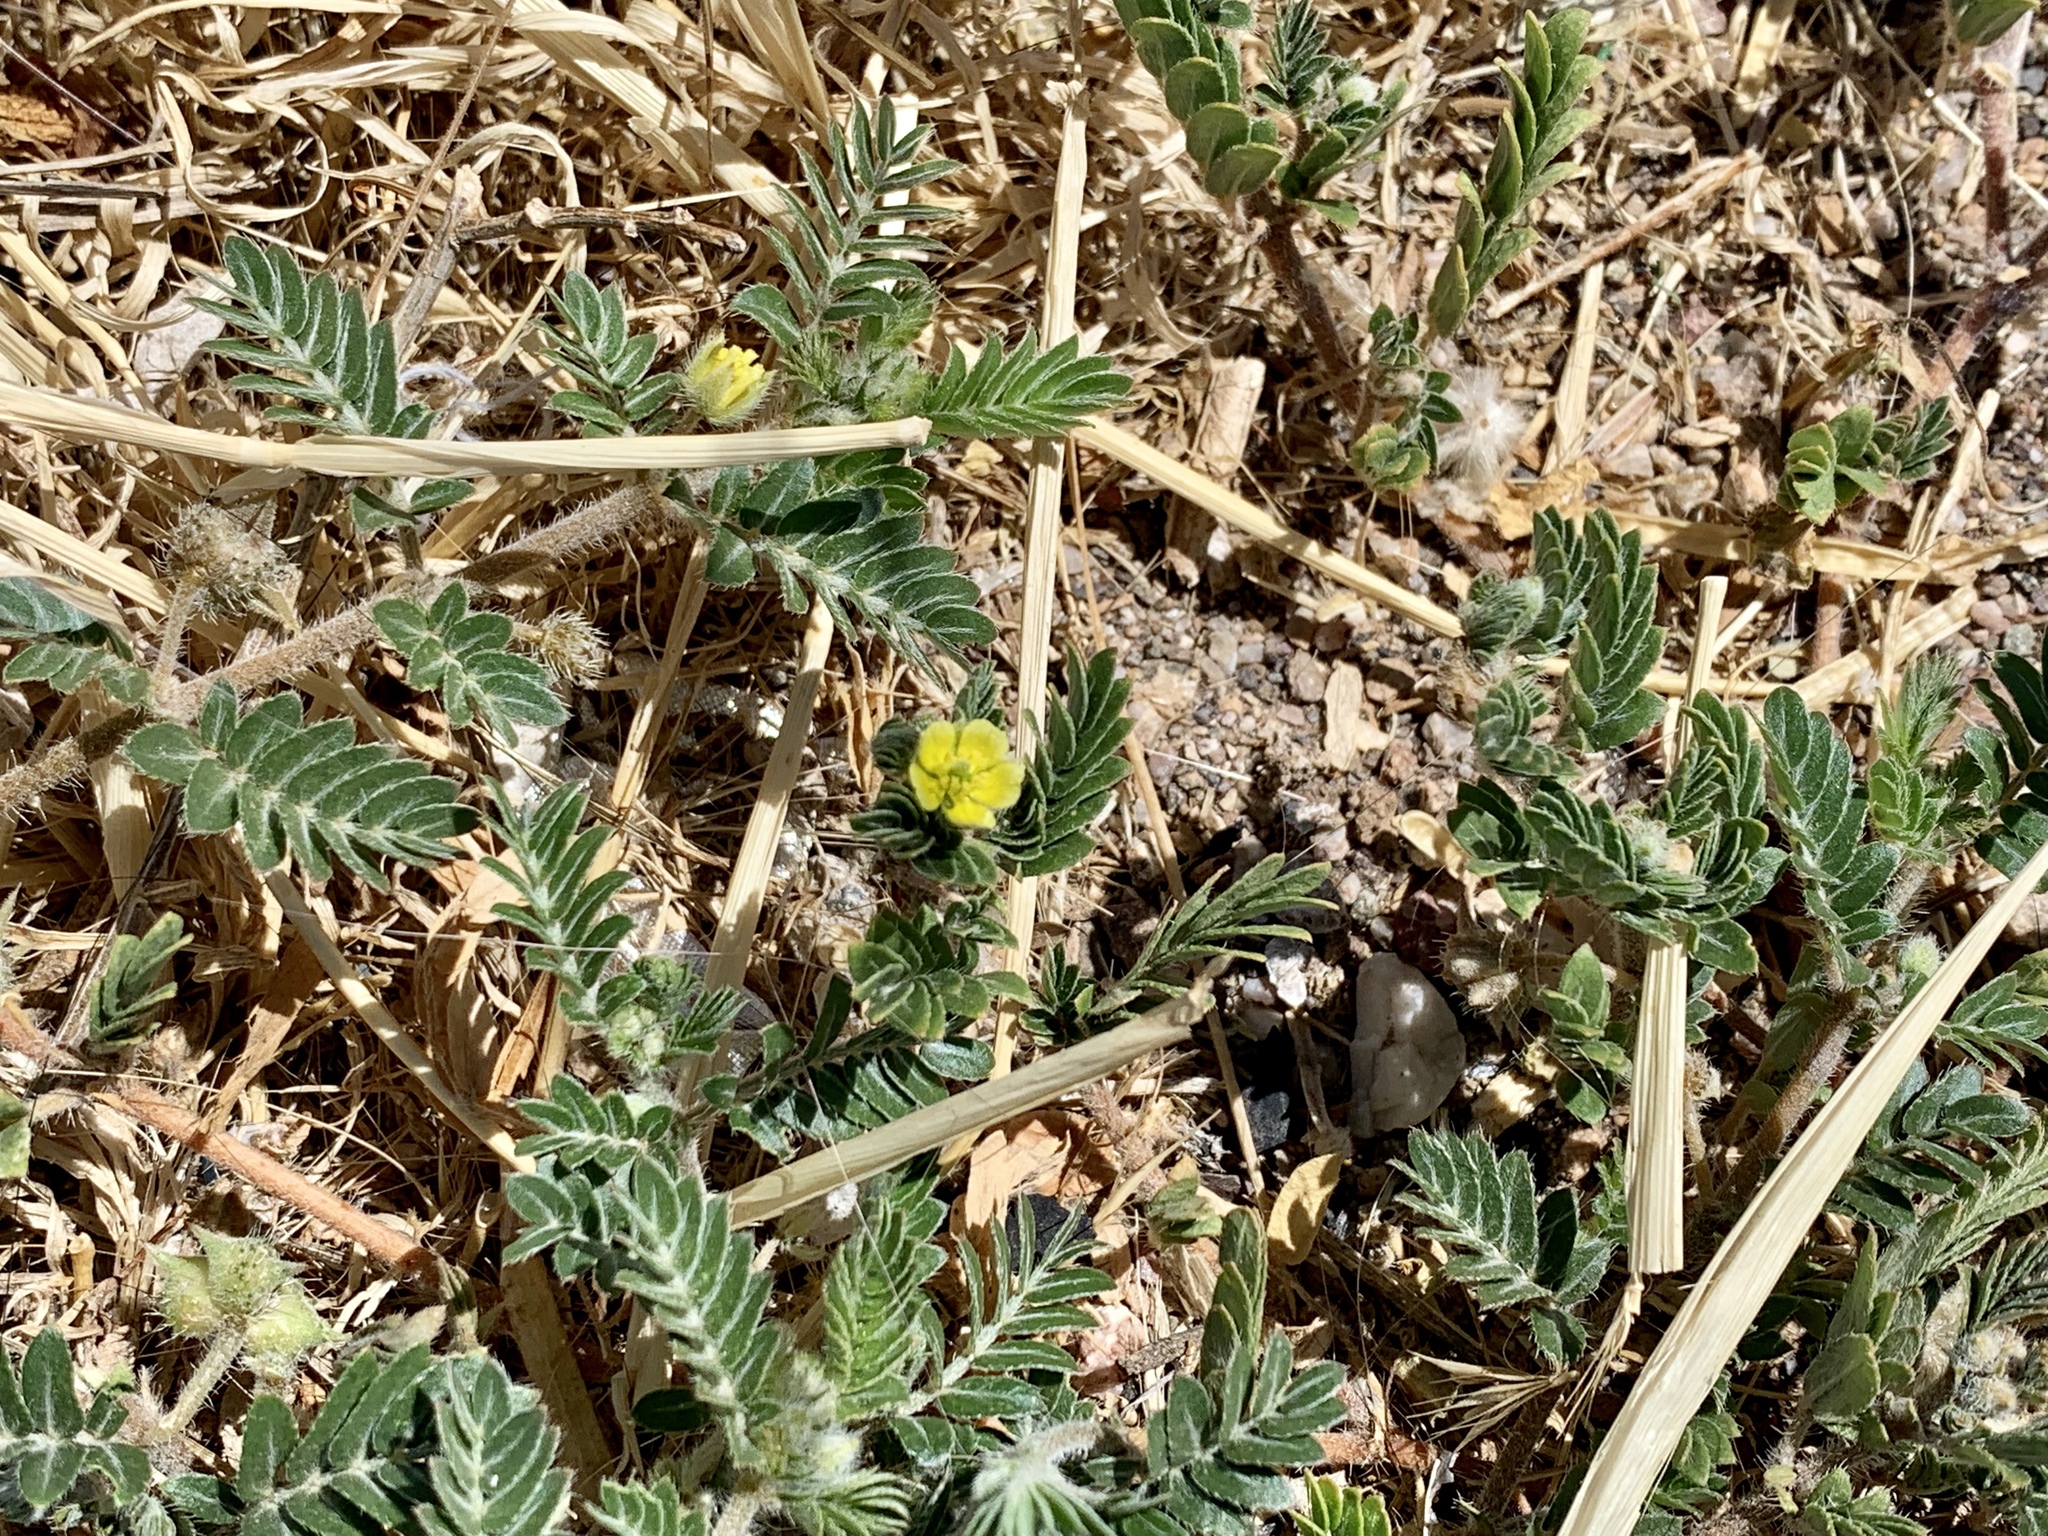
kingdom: Plantae
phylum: Tracheophyta
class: Magnoliopsida
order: Zygophyllales
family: Zygophyllaceae
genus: Tribulus
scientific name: Tribulus terrestris
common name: Puncturevine
